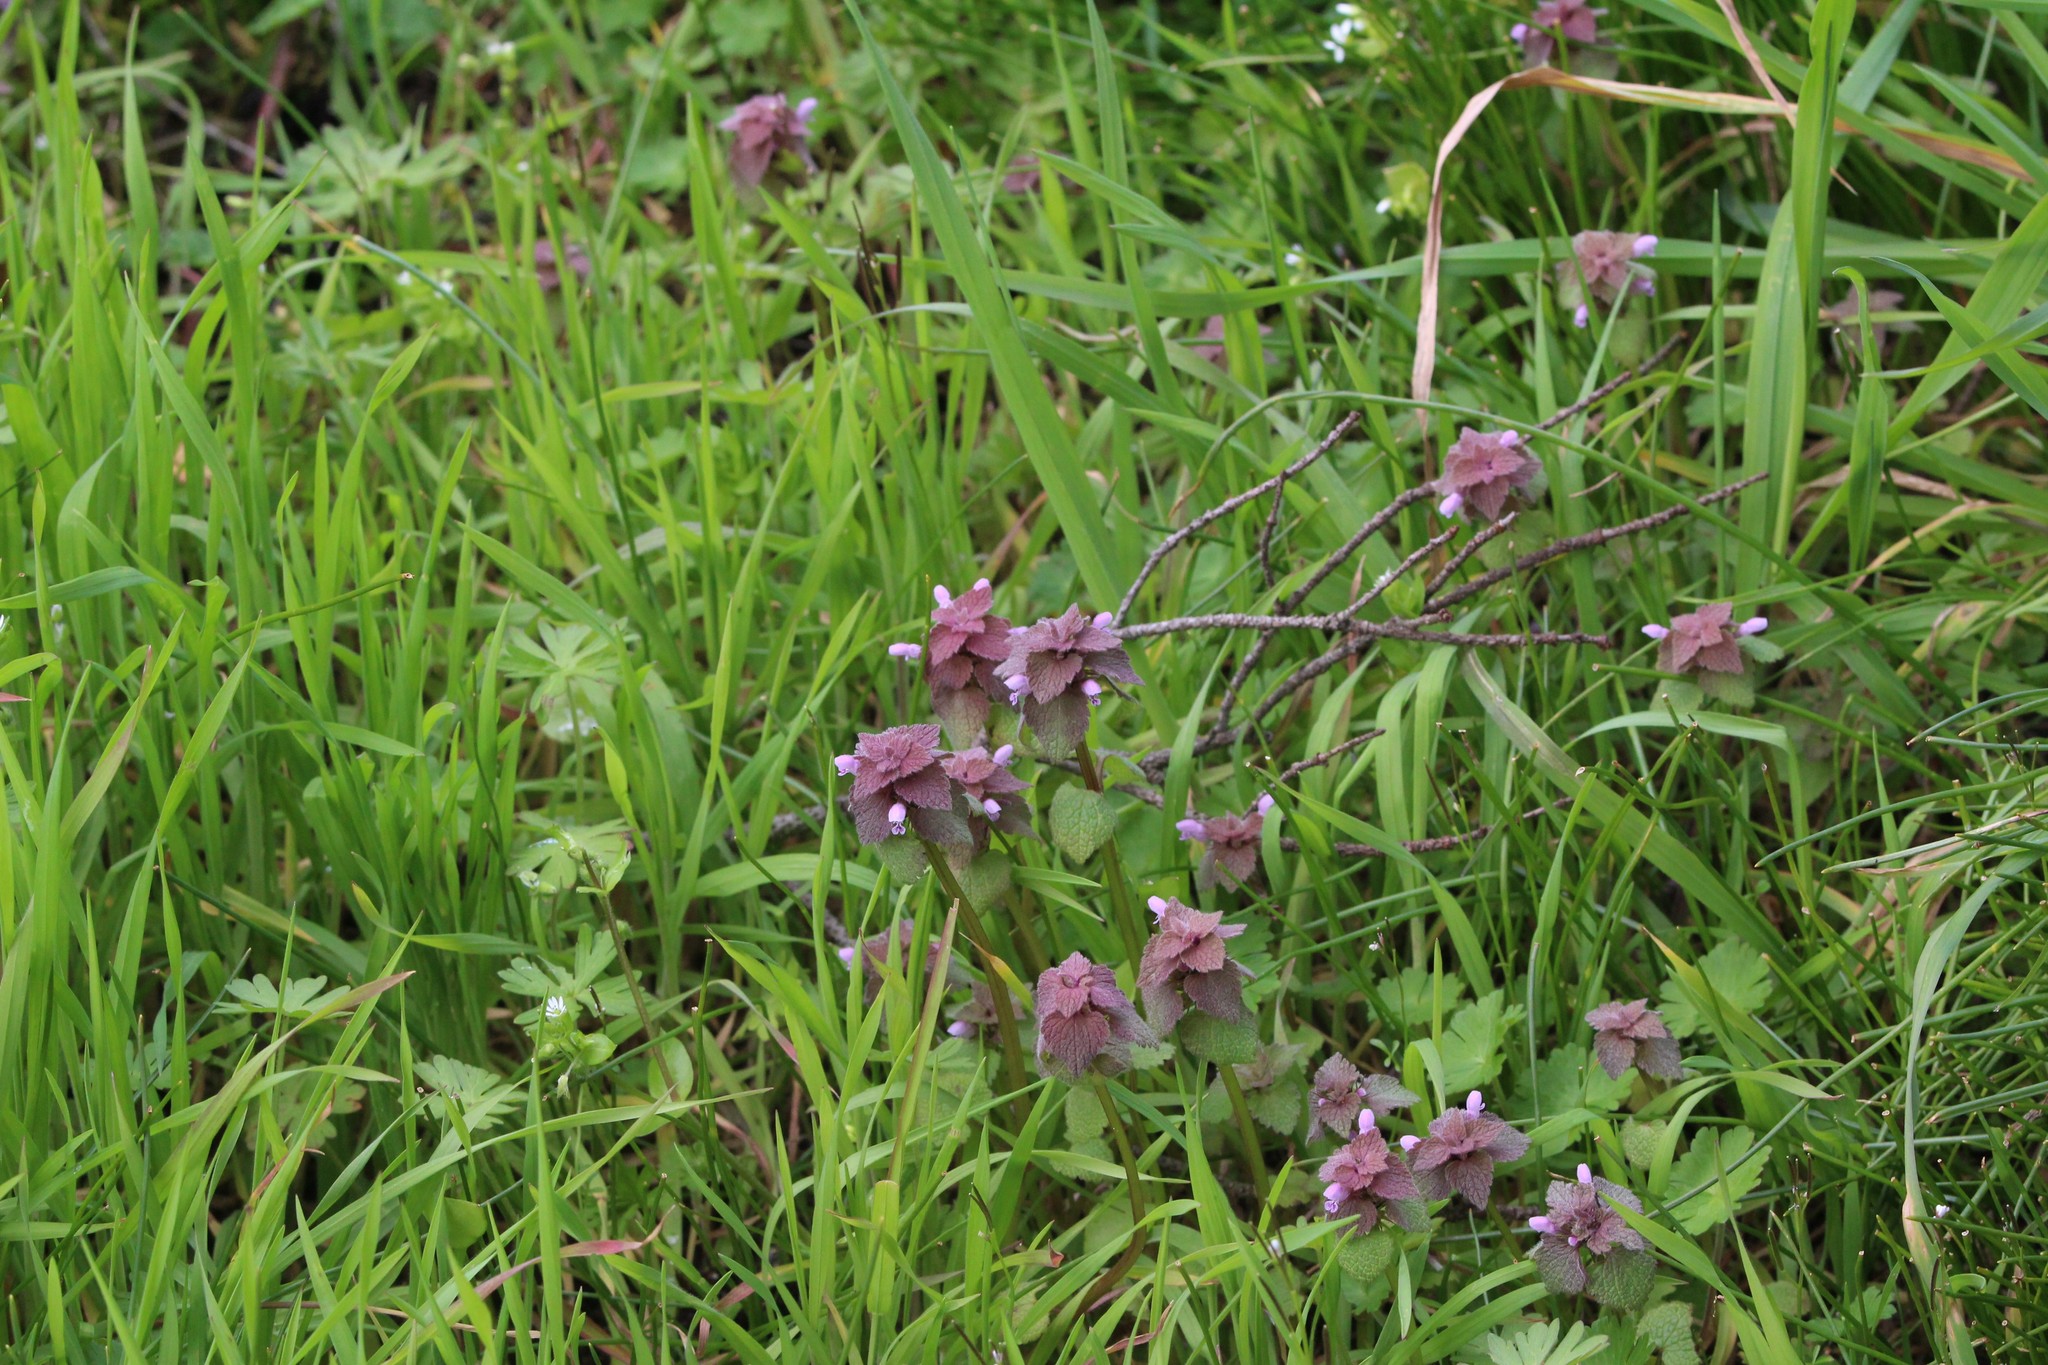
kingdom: Plantae
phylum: Tracheophyta
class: Magnoliopsida
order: Lamiales
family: Lamiaceae
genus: Lamium
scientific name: Lamium purpureum
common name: Red dead-nettle
